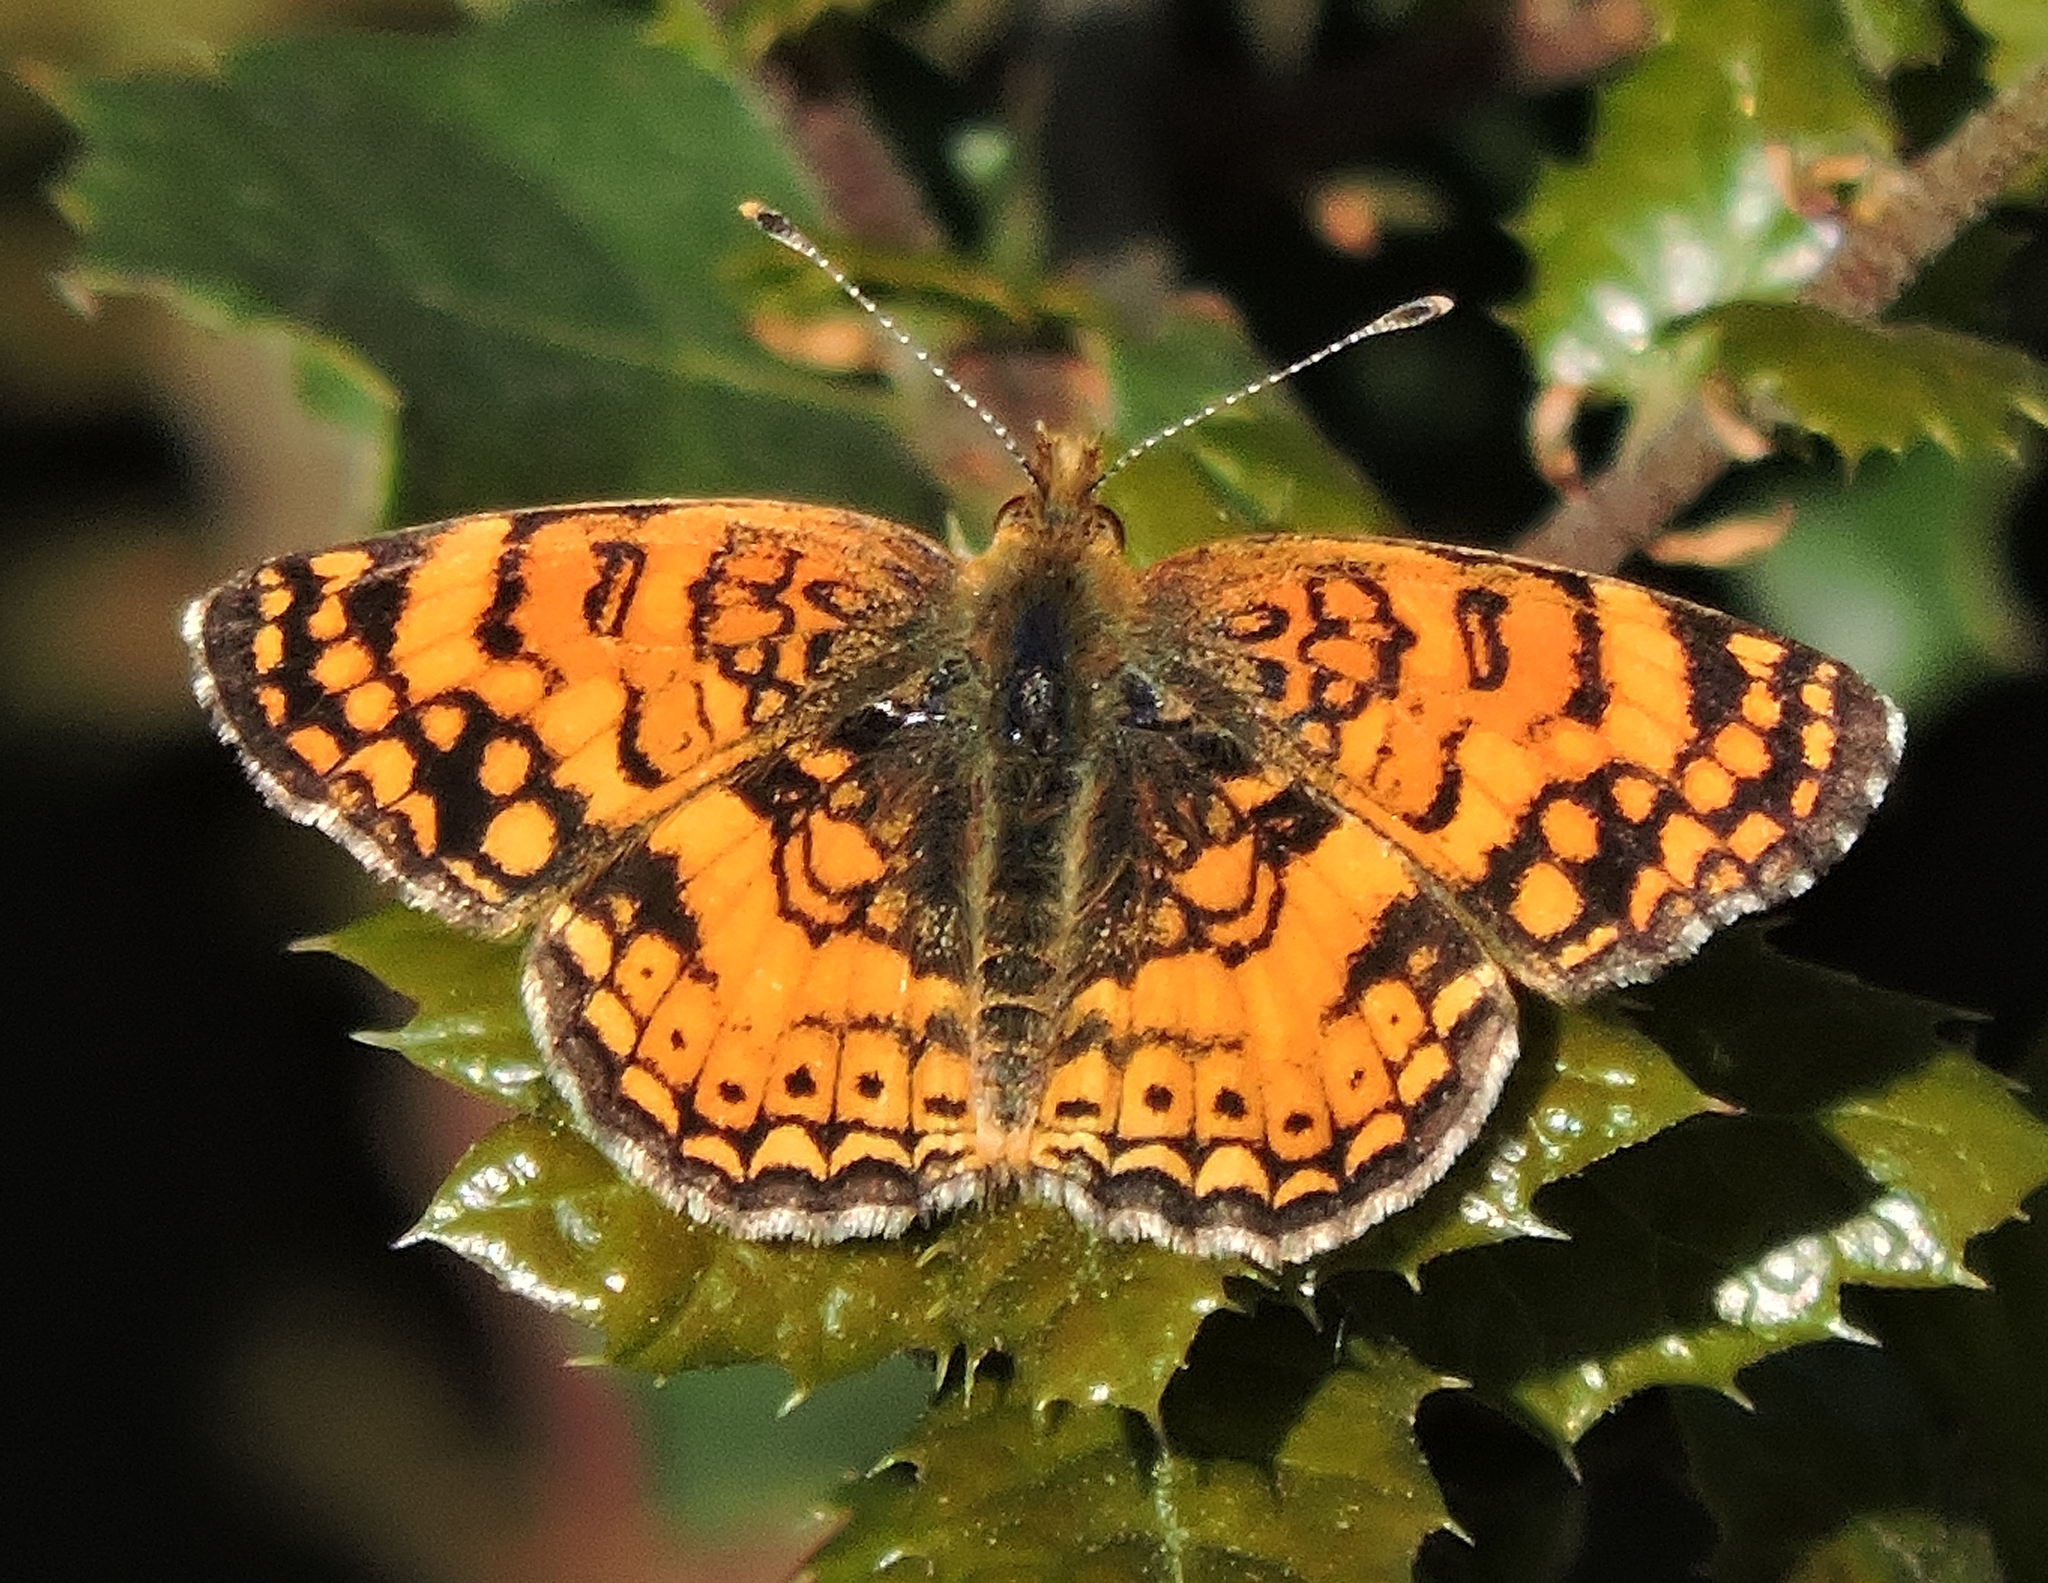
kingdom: Animalia
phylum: Arthropoda
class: Insecta
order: Lepidoptera
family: Nymphalidae
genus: Eresia
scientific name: Eresia aveyrona
